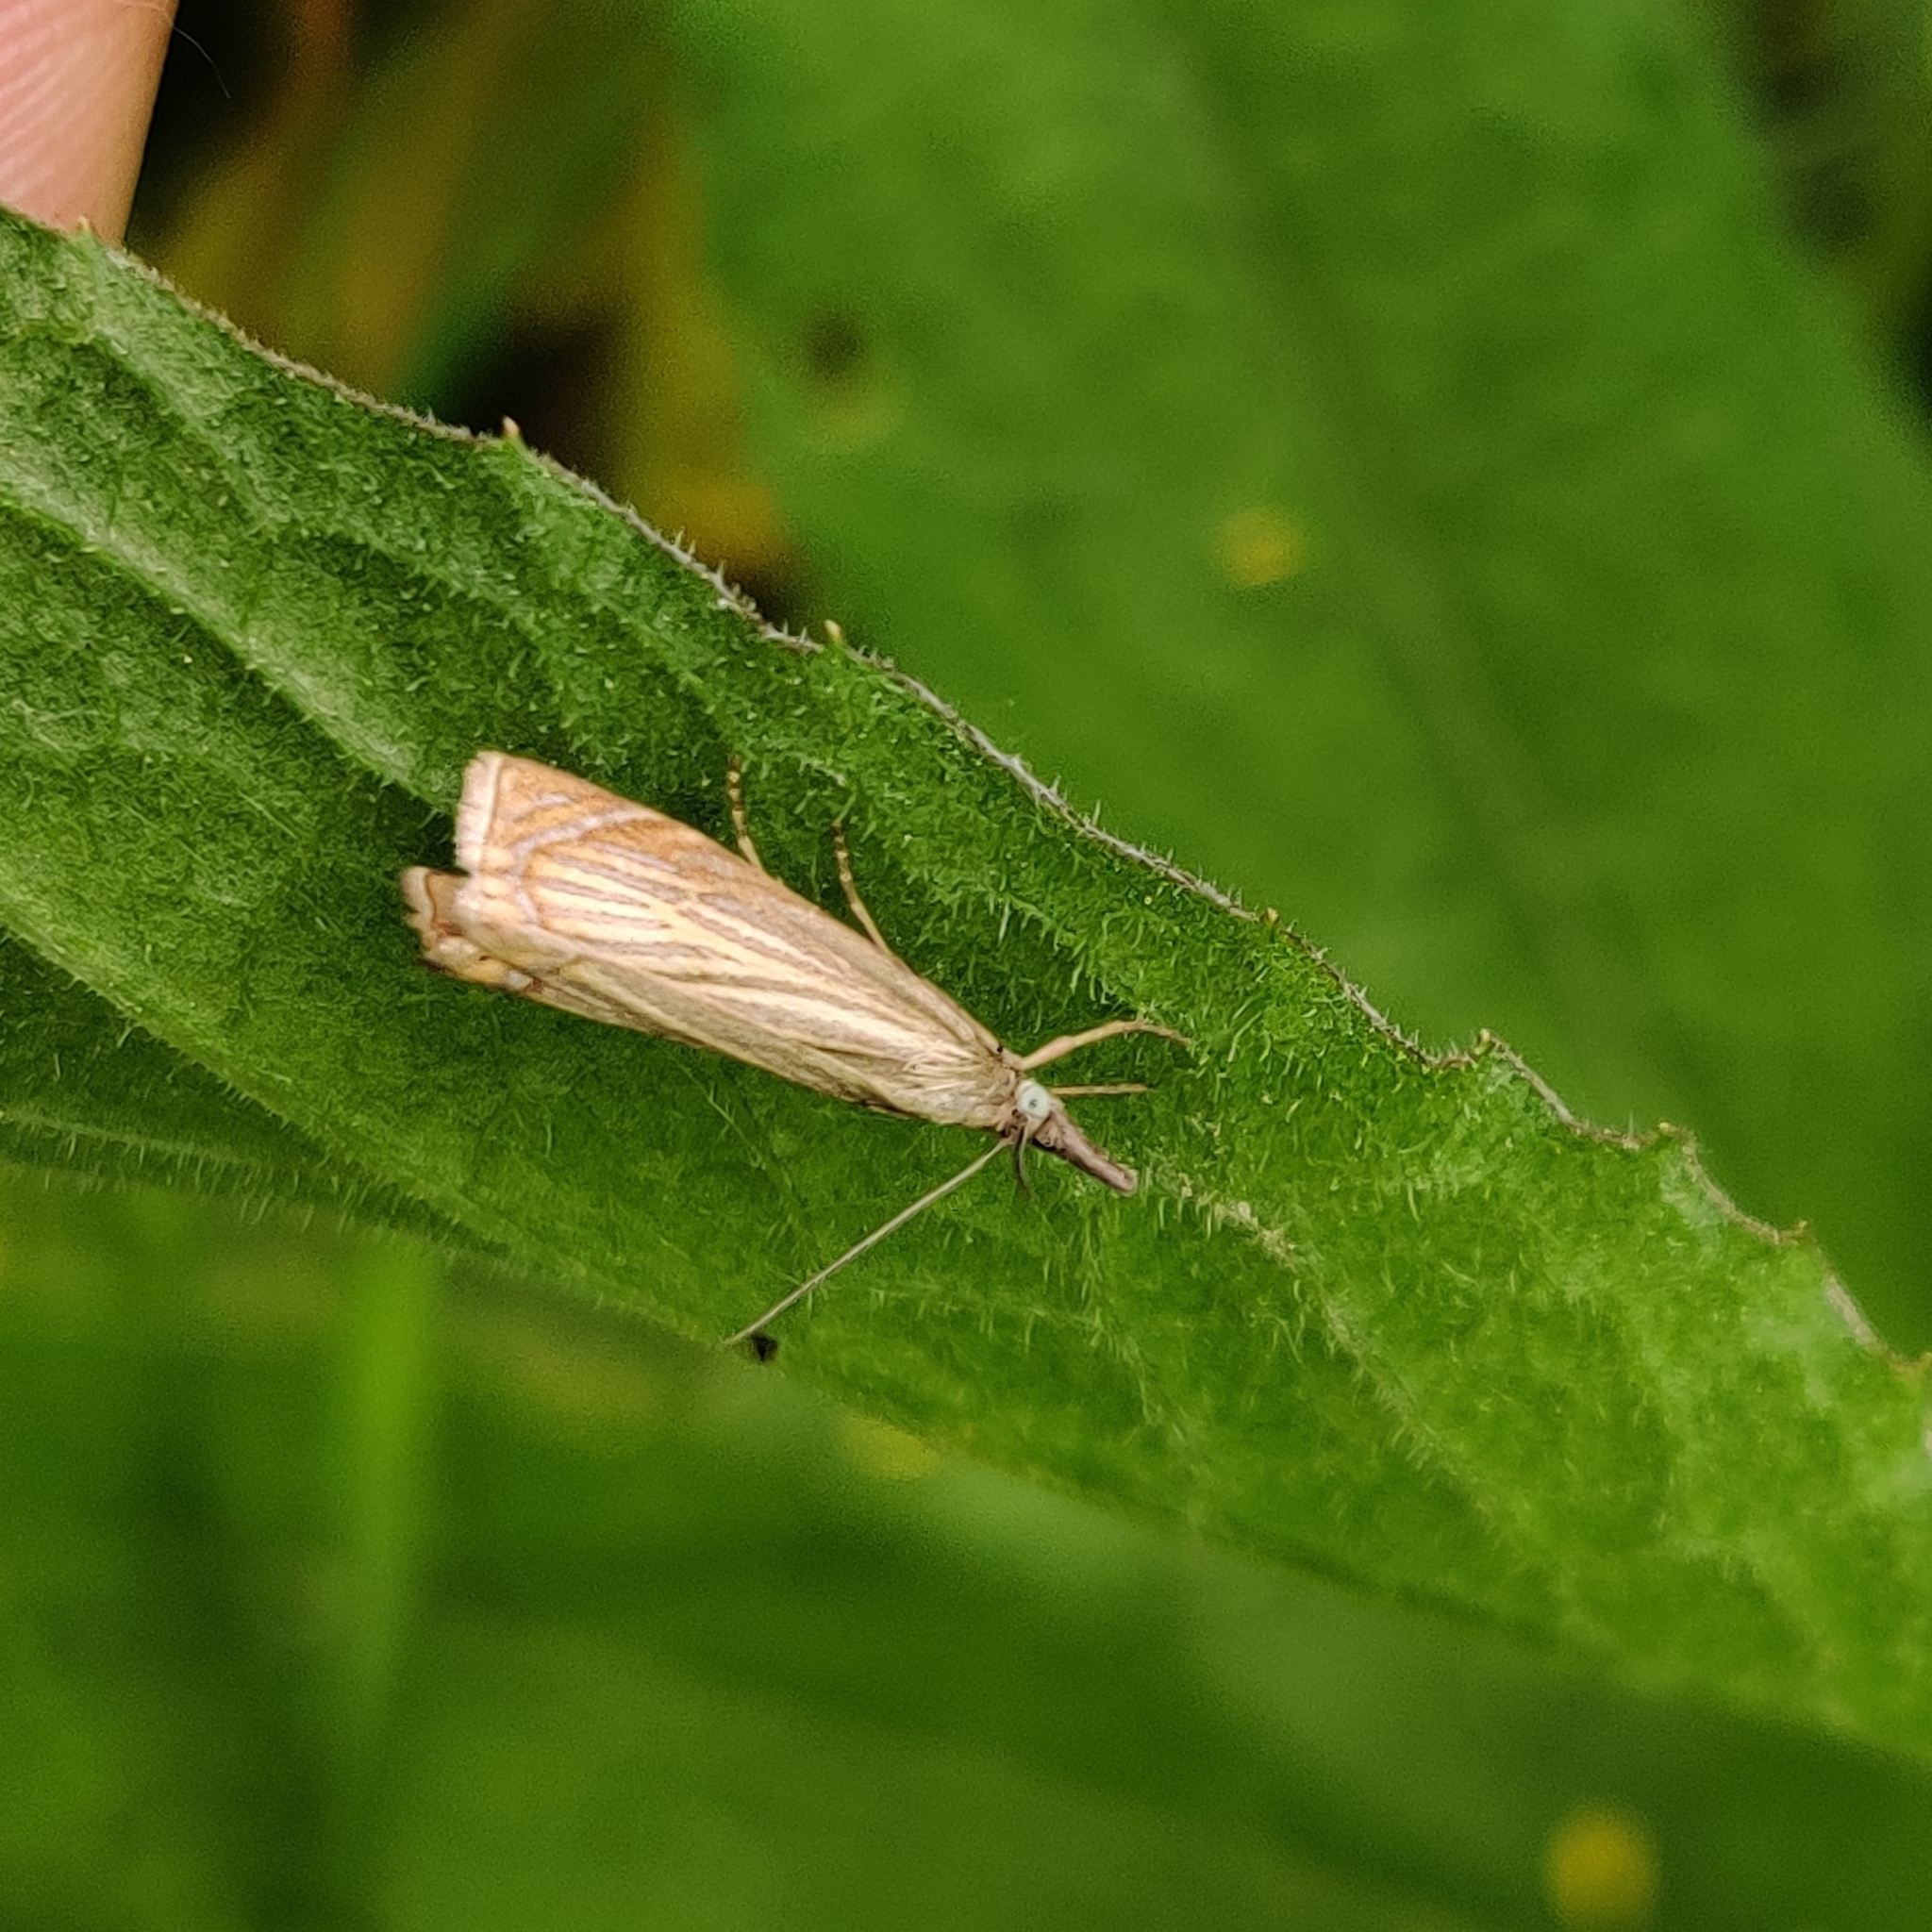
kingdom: Animalia
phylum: Arthropoda
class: Insecta
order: Lepidoptera
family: Crambidae
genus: Chrysoteuchia
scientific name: Chrysoteuchia culmella
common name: Garden grass-veneer
